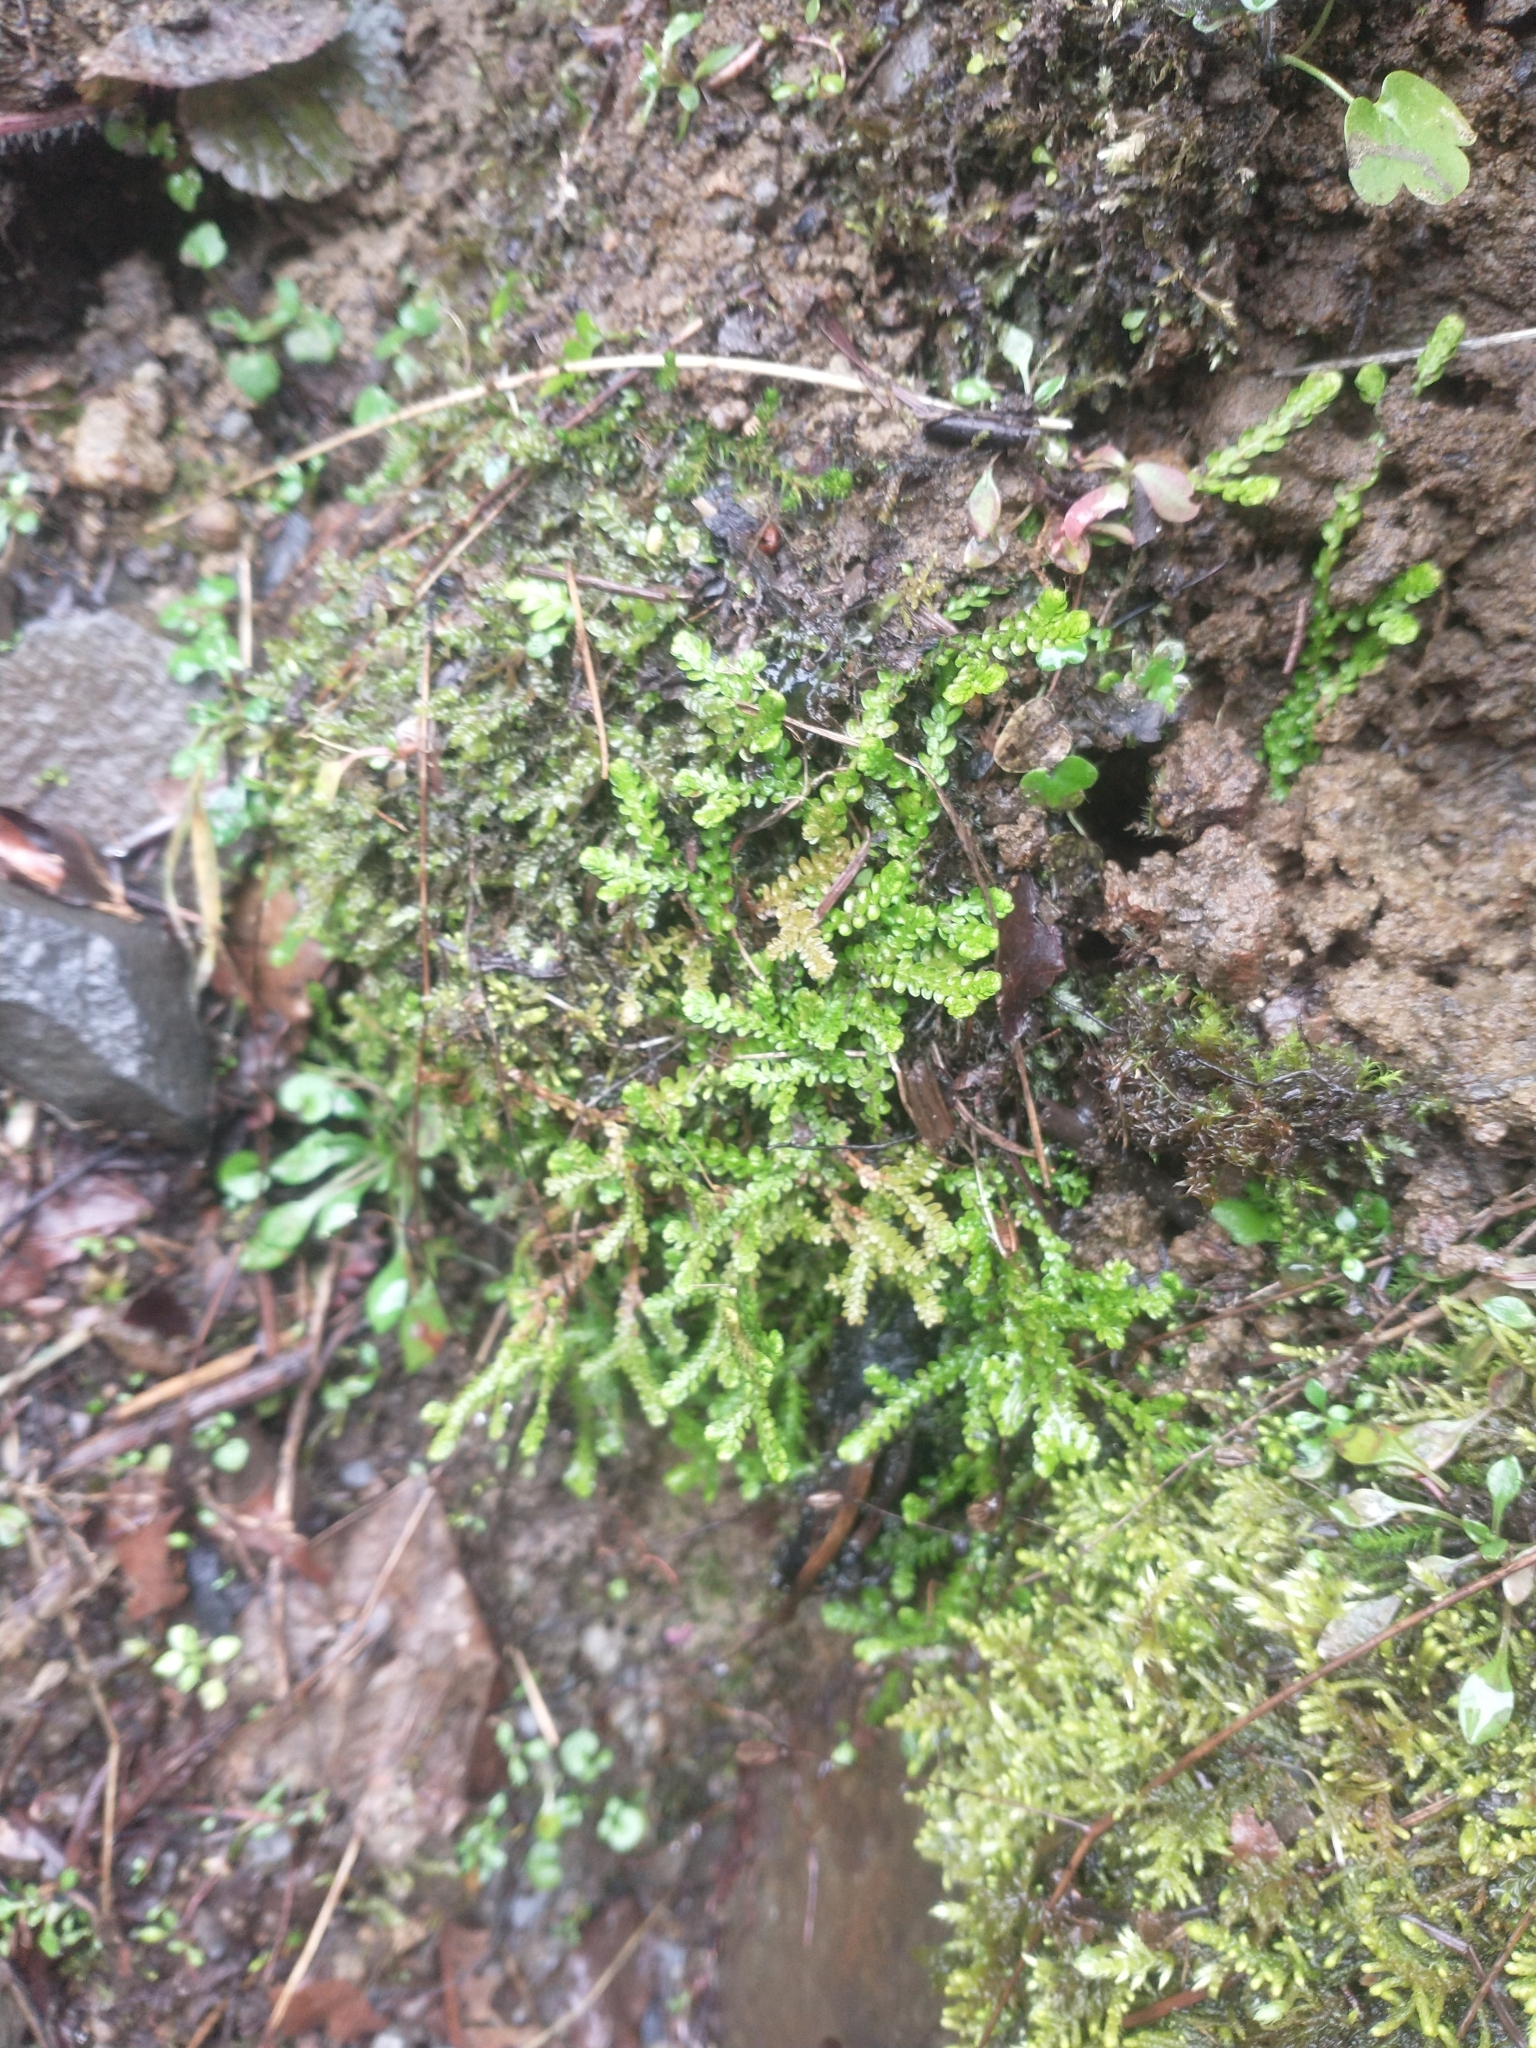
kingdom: Plantae
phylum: Tracheophyta
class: Lycopodiopsida
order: Selaginellales
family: Selaginellaceae
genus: Selaginella
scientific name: Selaginella douglasii
